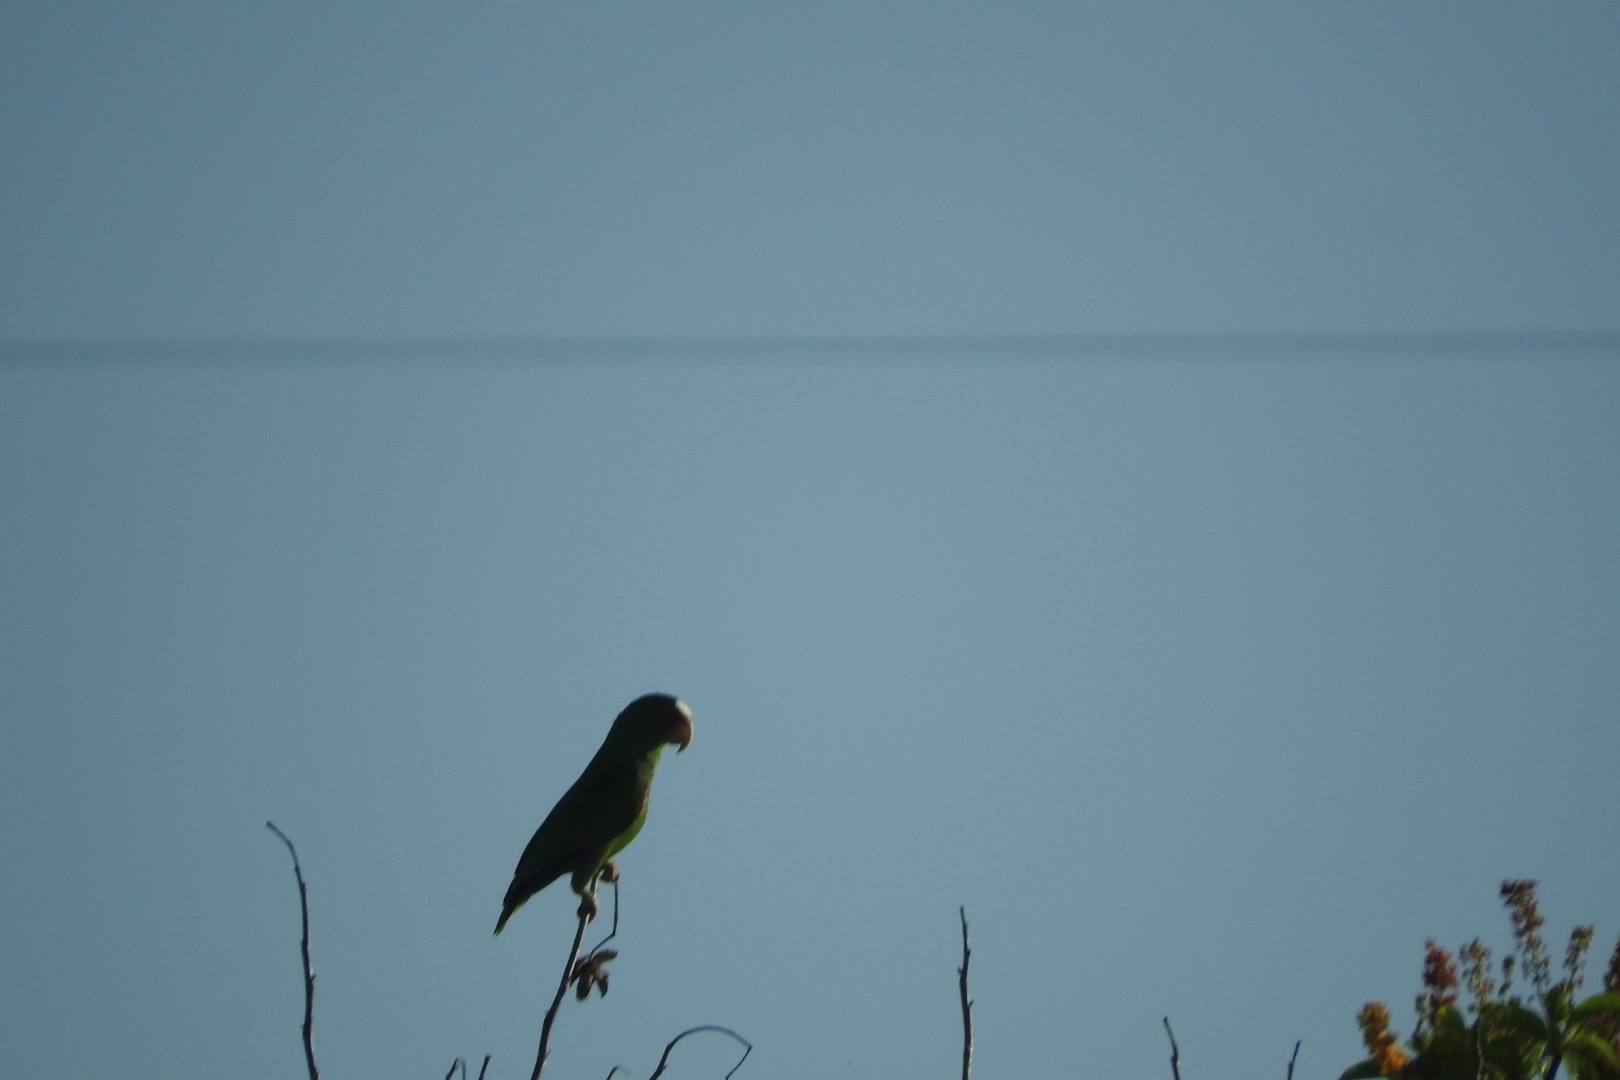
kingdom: Animalia
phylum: Chordata
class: Aves
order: Psittaciformes
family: Psittacidae
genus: Amazona
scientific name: Amazona albifrons
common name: White-fronted amazon
